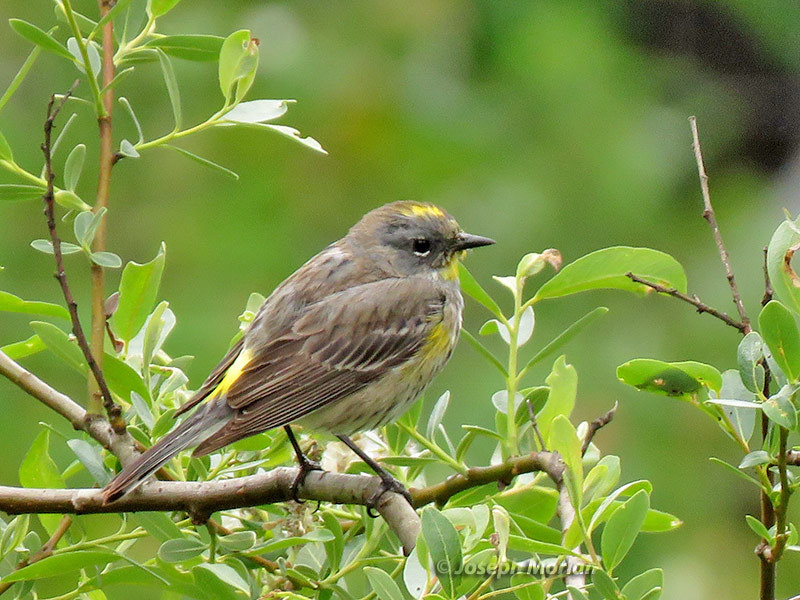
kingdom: Animalia
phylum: Chordata
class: Aves
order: Passeriformes
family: Parulidae
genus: Setophaga
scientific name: Setophaga coronata
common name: Myrtle warbler
